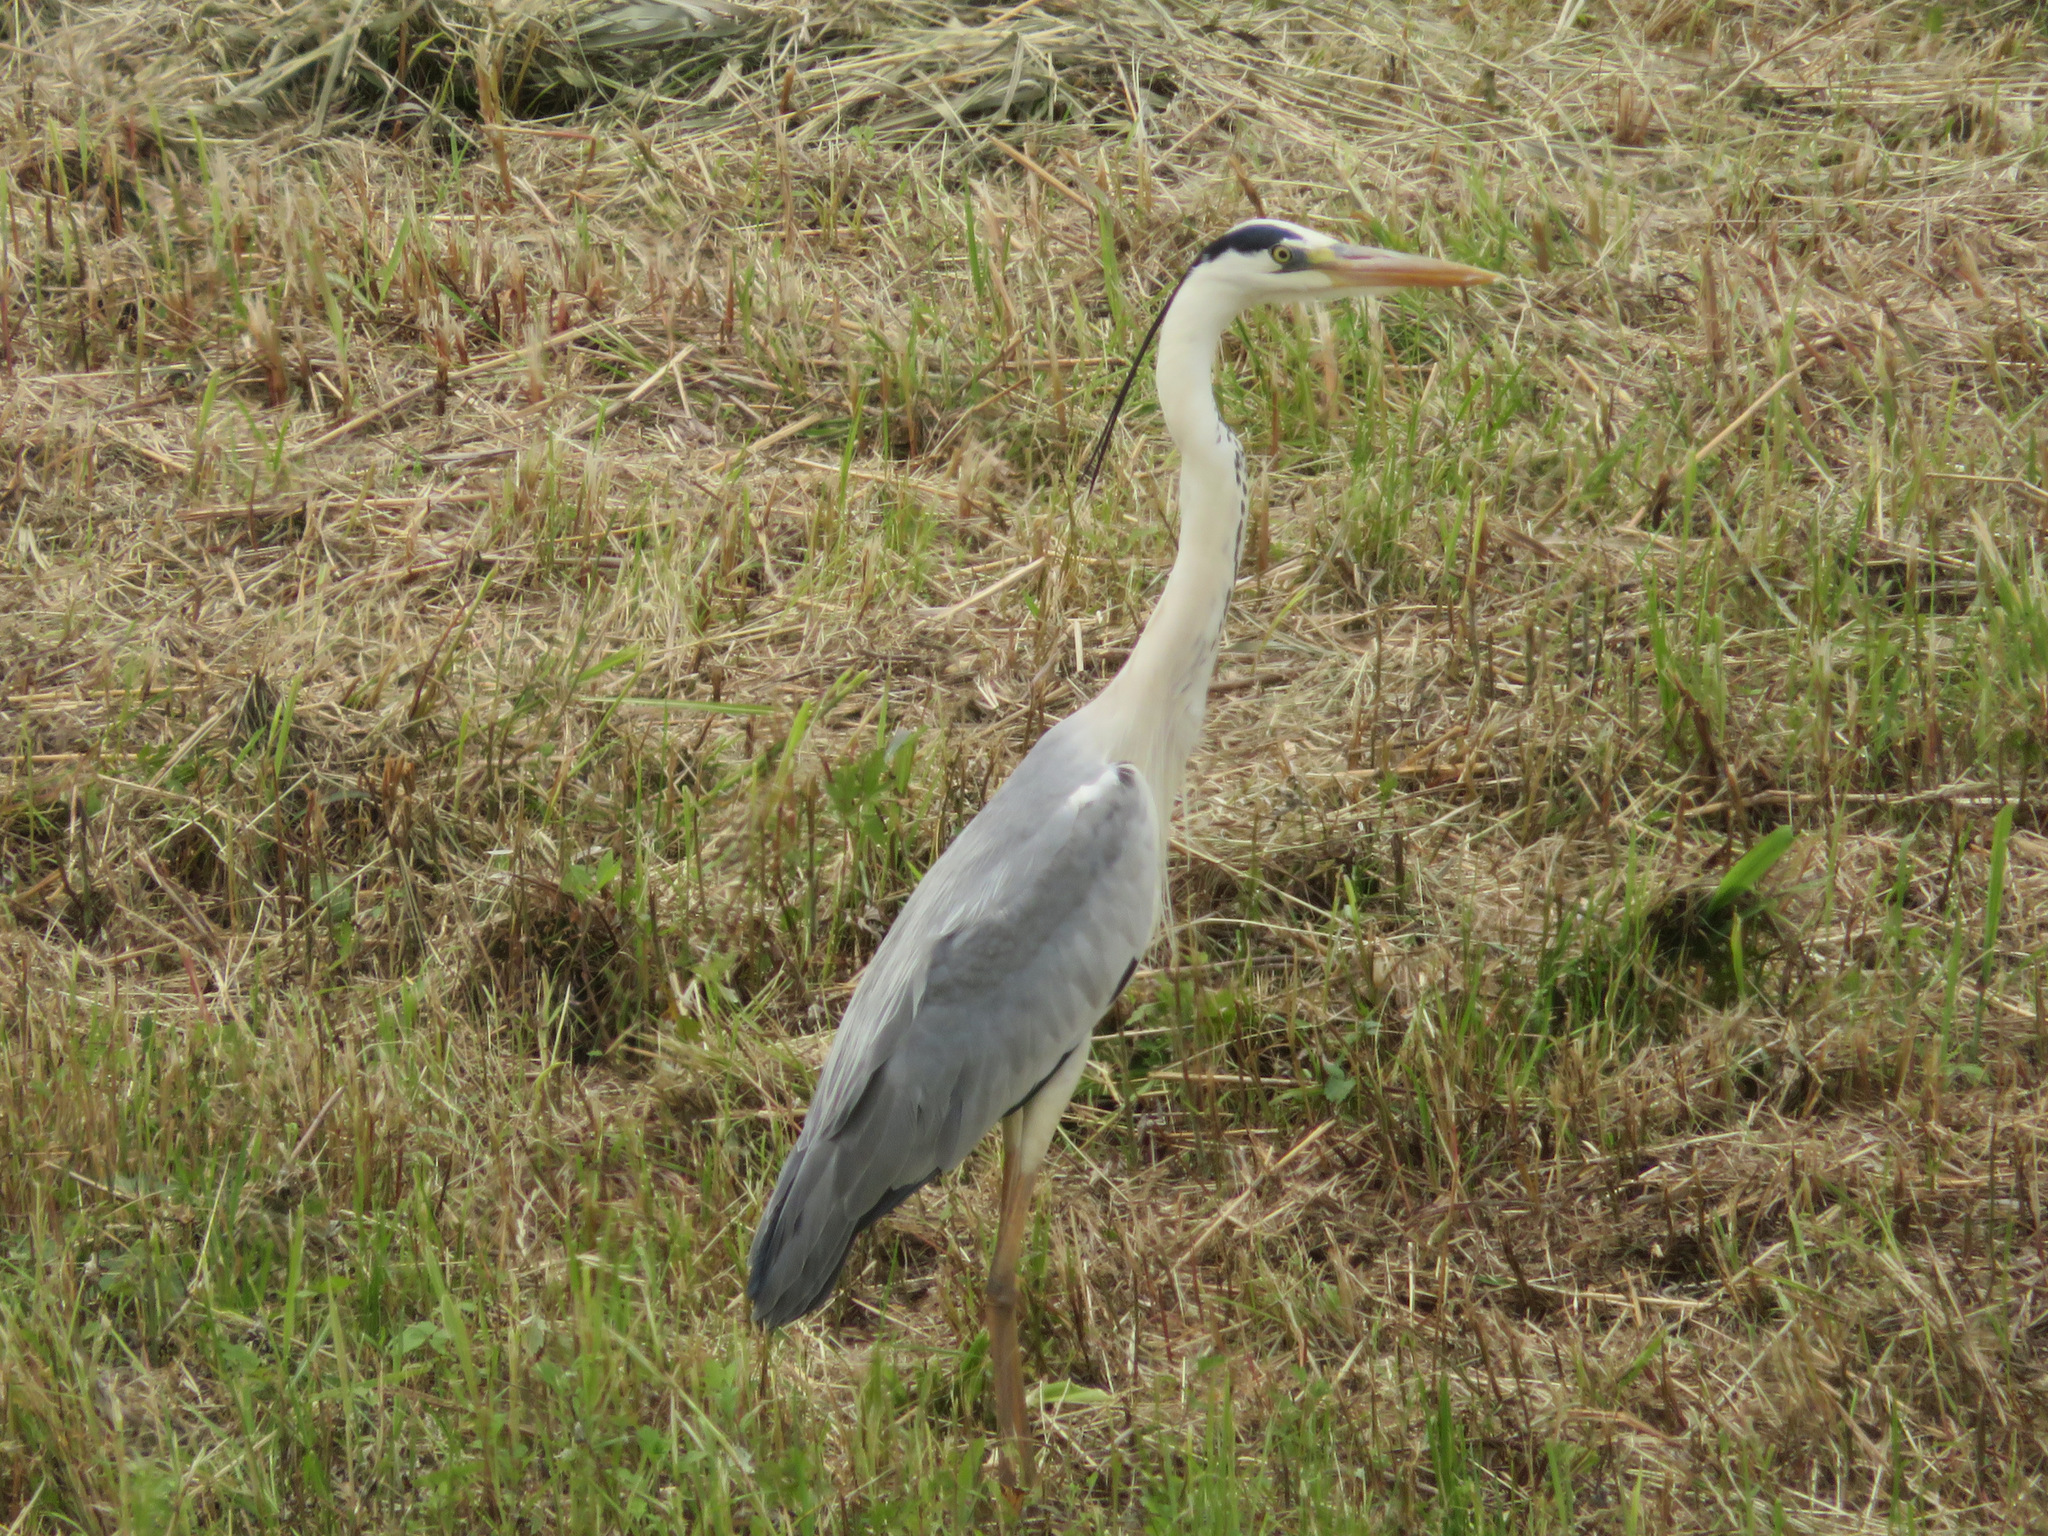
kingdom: Animalia
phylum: Chordata
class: Aves
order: Pelecaniformes
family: Ardeidae
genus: Ardea
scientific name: Ardea cinerea
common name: Grey heron
